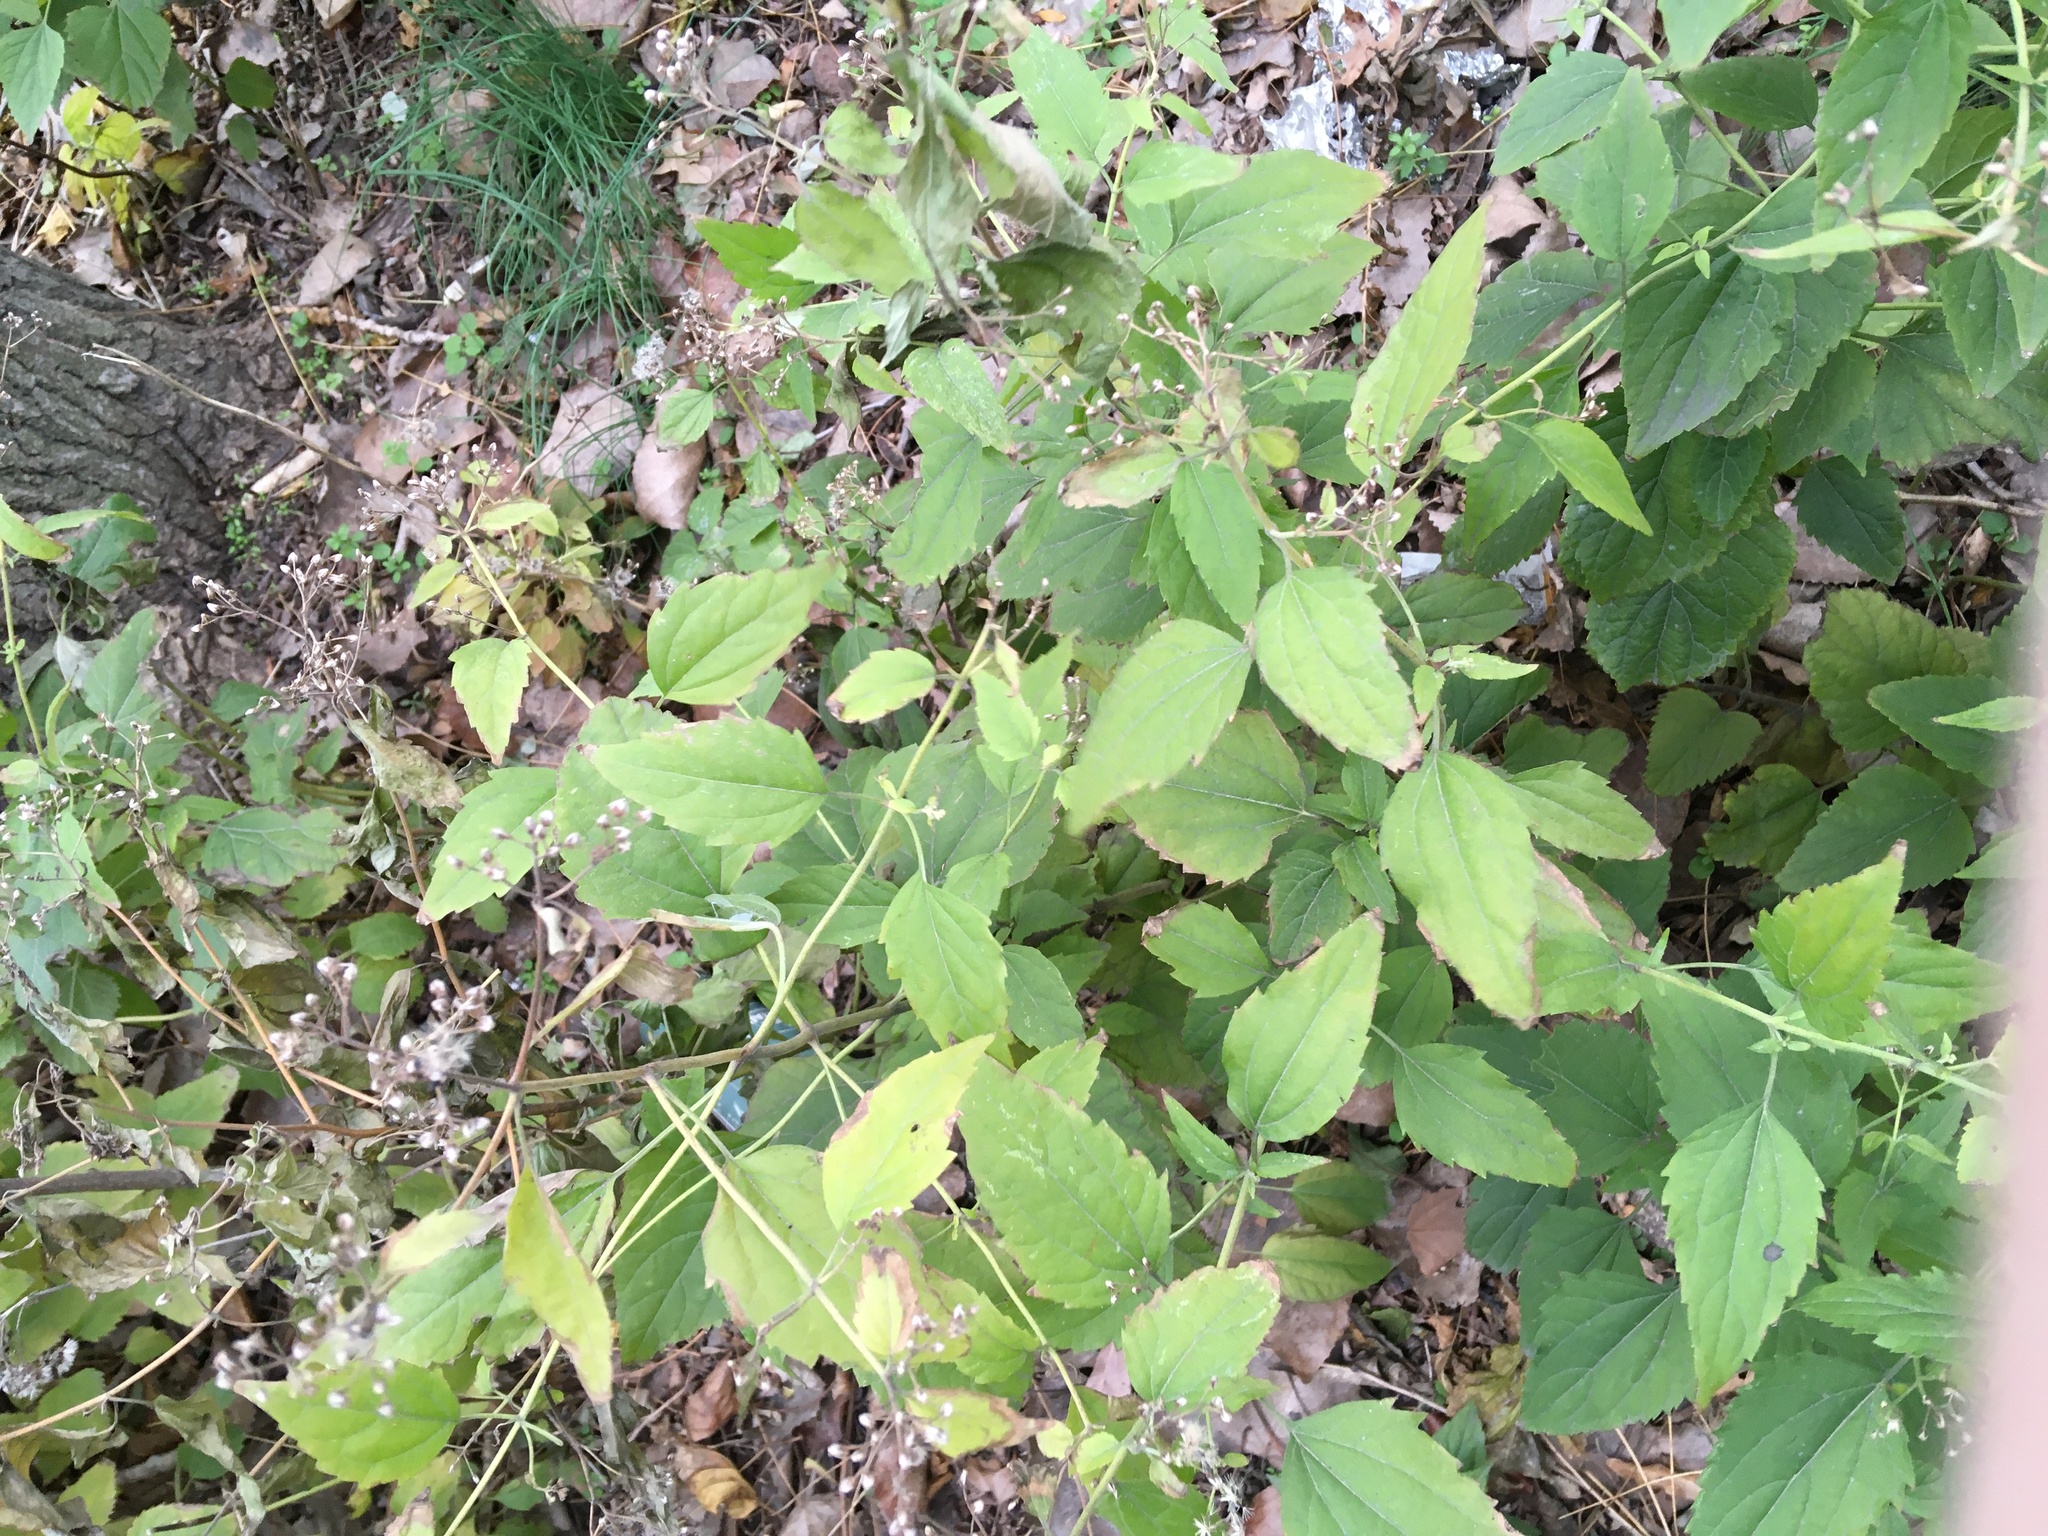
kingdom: Plantae
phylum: Tracheophyta
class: Magnoliopsida
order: Asterales
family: Asteraceae
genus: Ageratina
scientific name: Ageratina altissima
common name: White snakeroot
